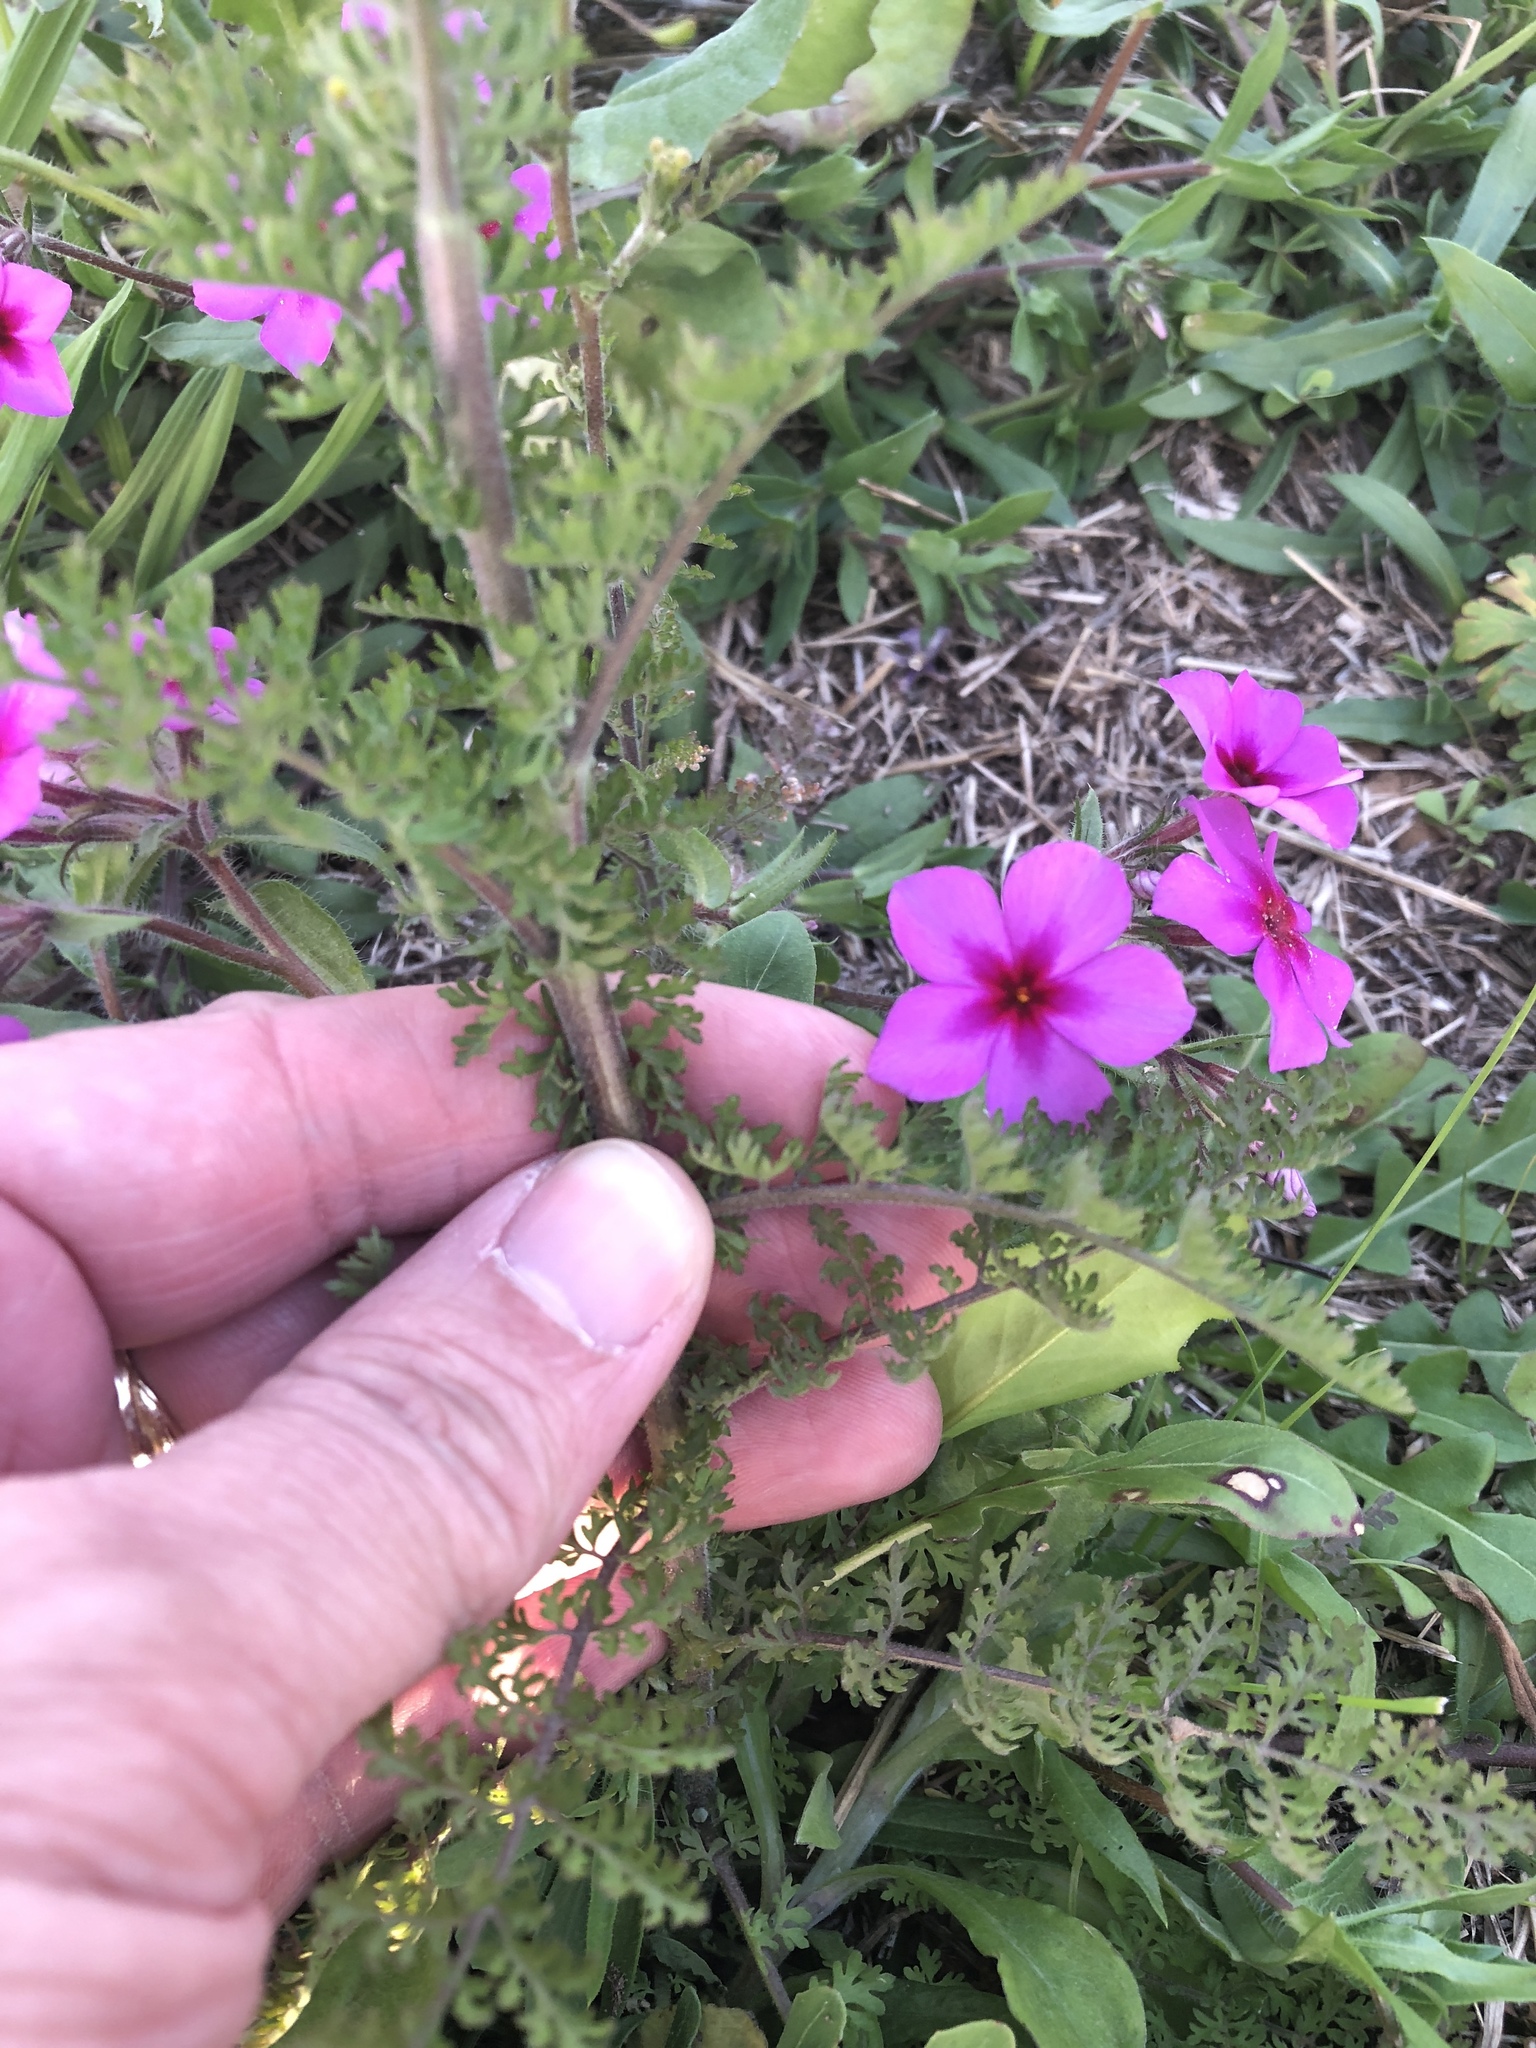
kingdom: Plantae
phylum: Tracheophyta
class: Magnoliopsida
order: Brassicales
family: Brassicaceae
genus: Descurainia
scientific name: Descurainia pinnata
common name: Western tansy mustard
